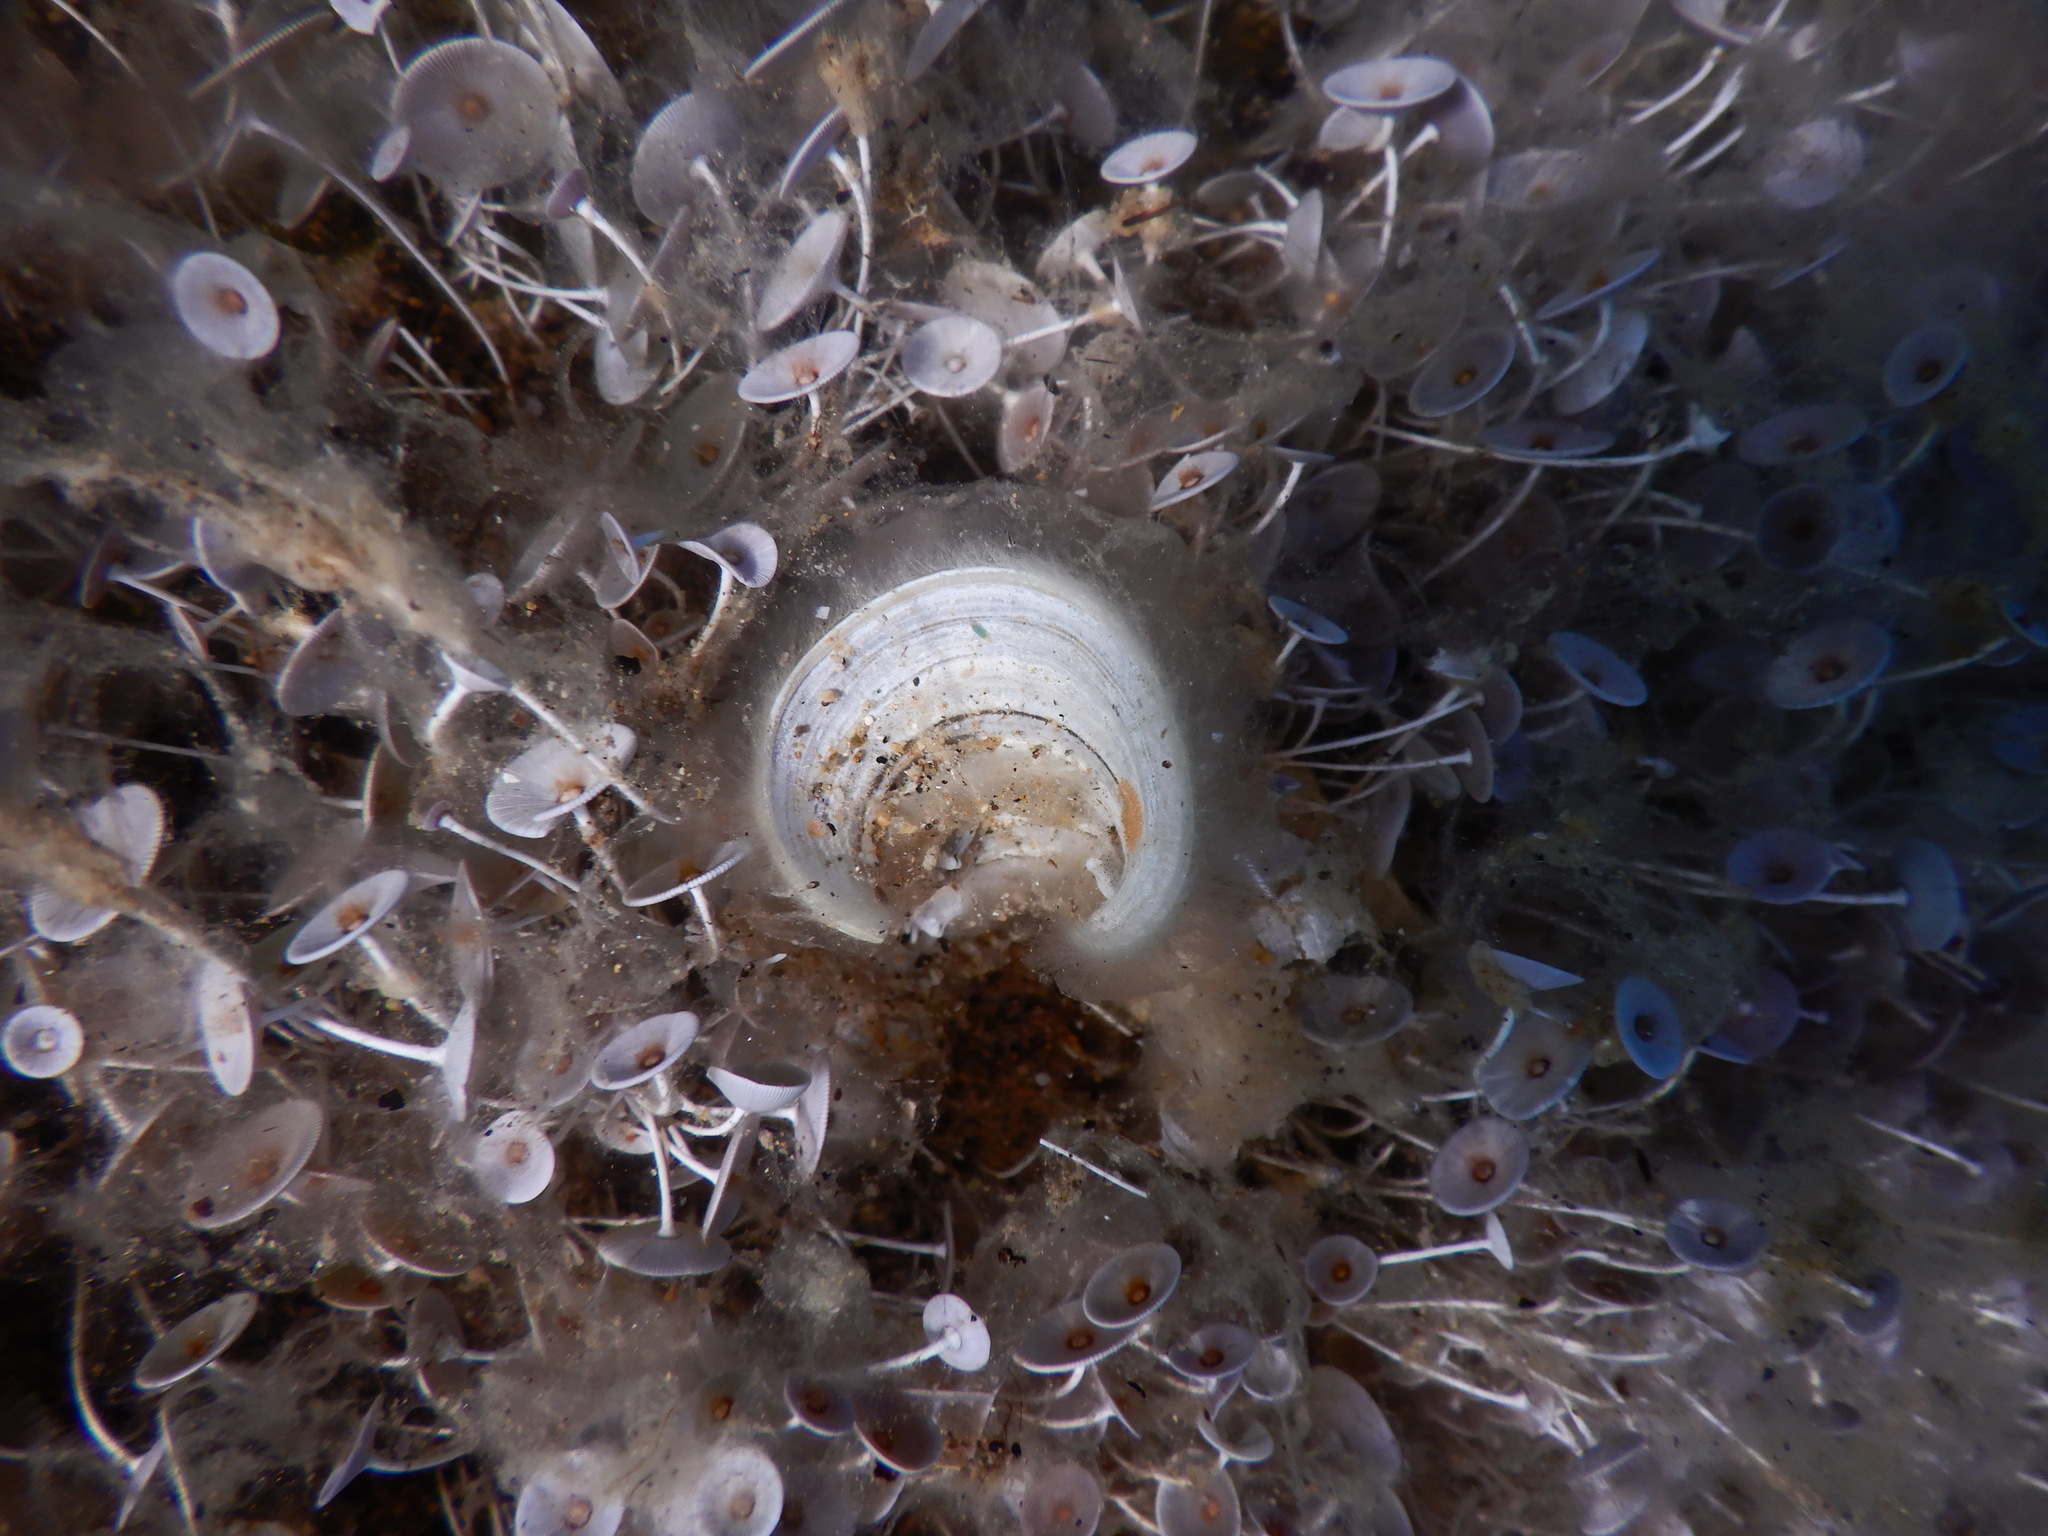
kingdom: Chromista
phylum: Ochrophyta
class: Phaeophyceae
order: Dictyotales
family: Dictyotaceae
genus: Padina
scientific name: Padina
